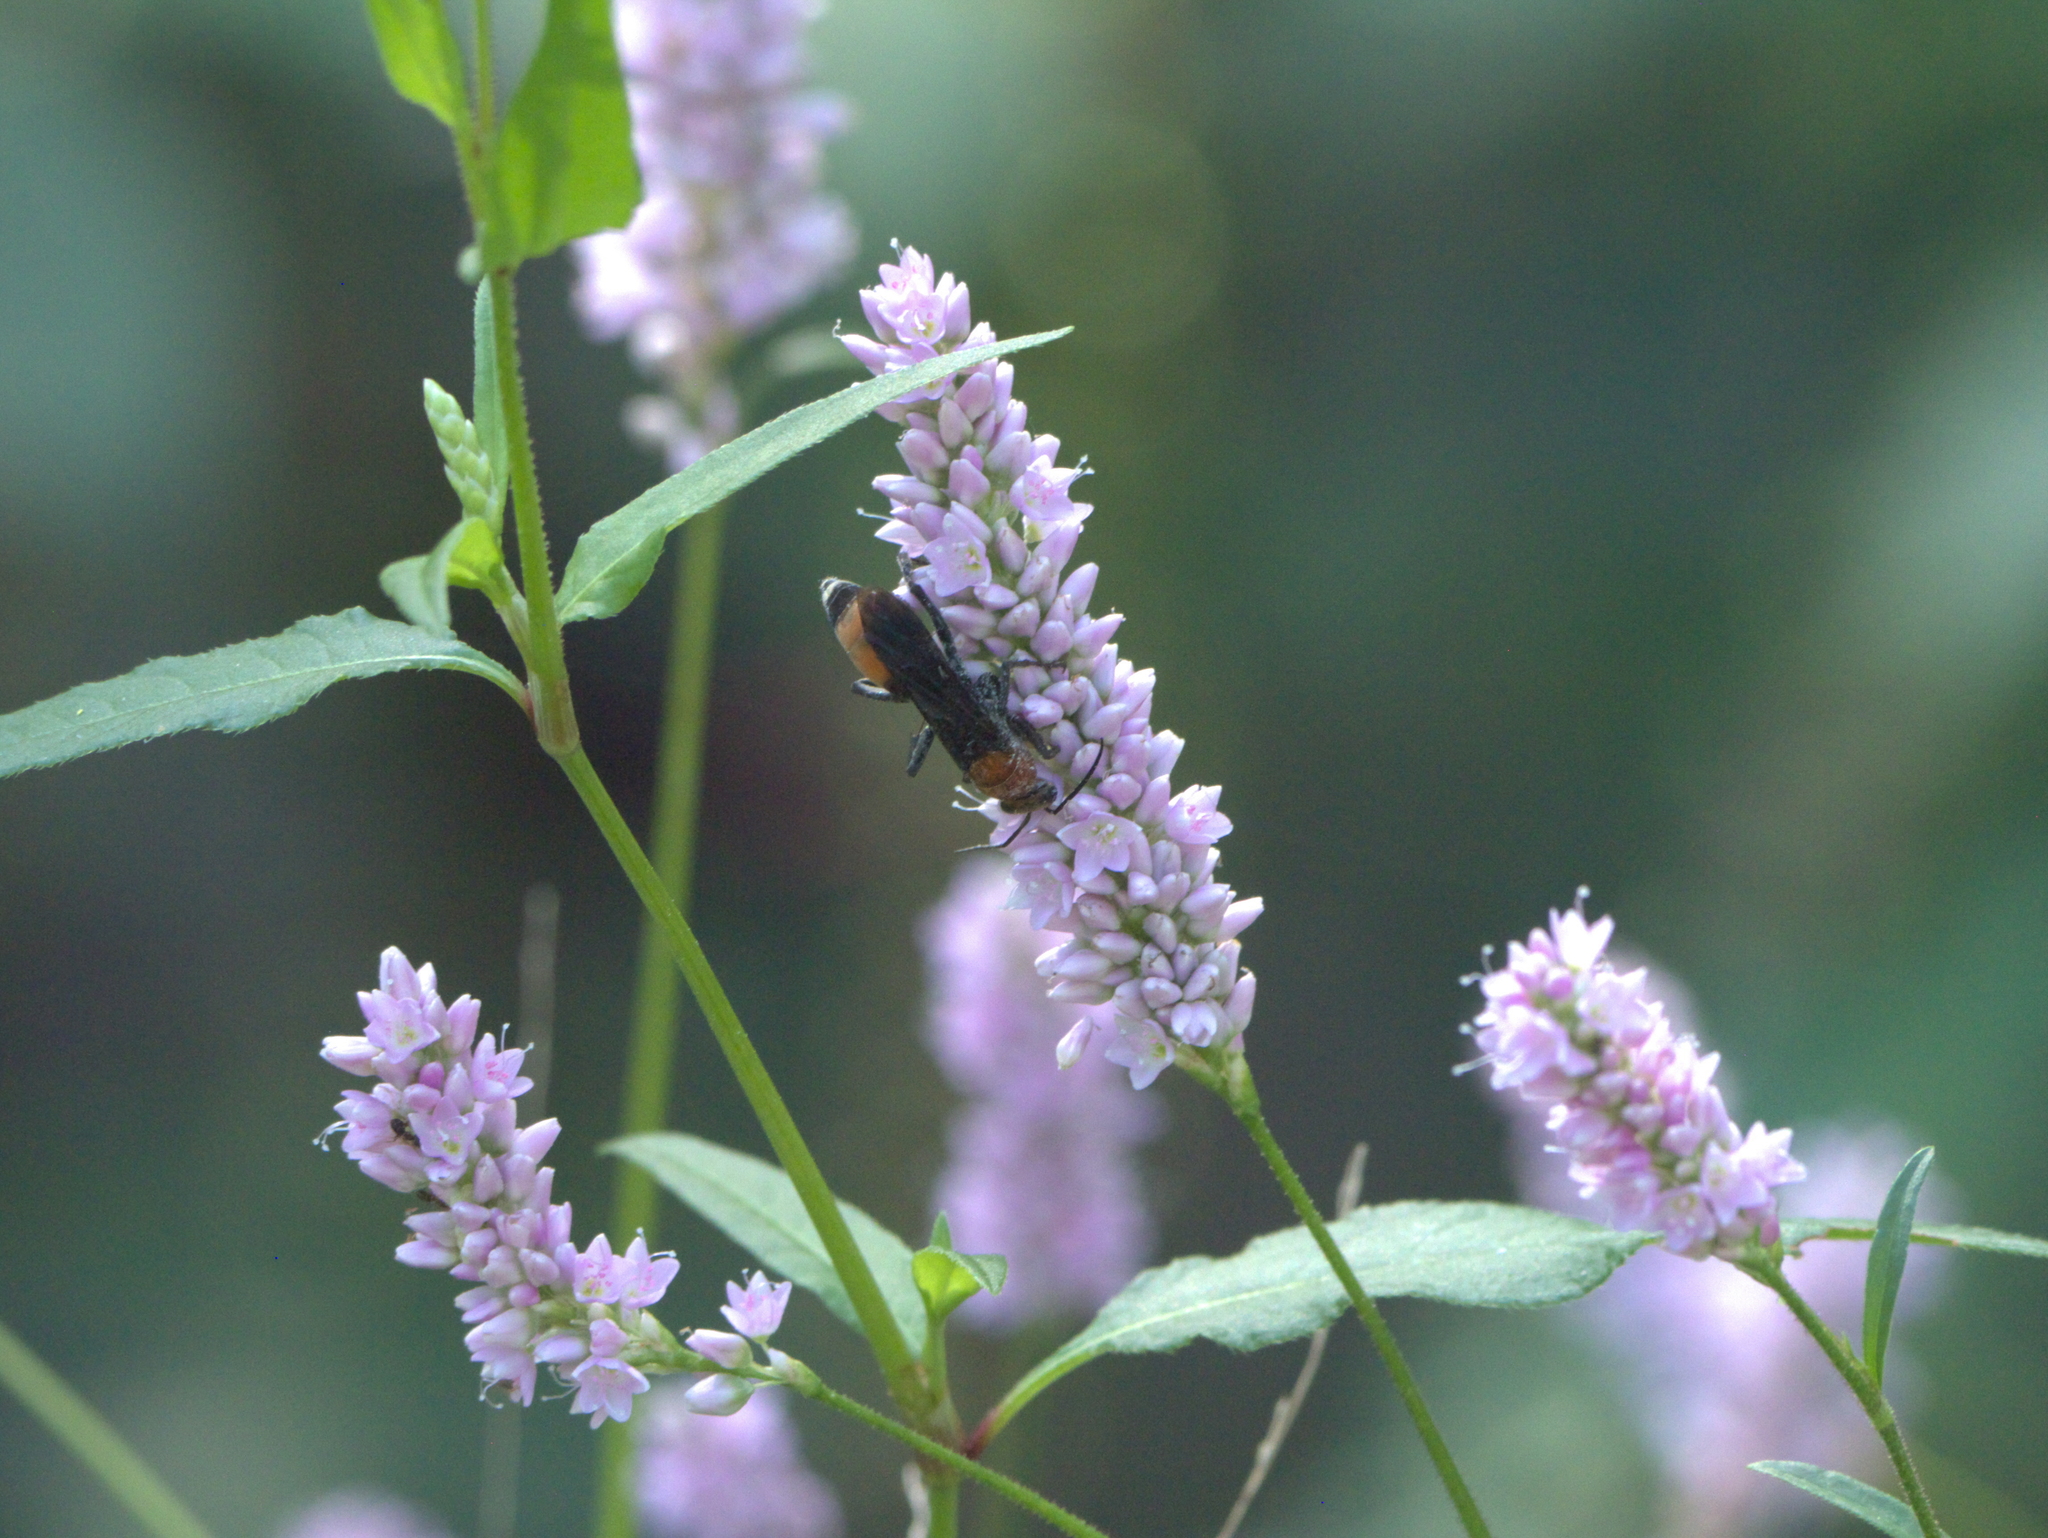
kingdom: Animalia
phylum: Arthropoda
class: Insecta
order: Hymenoptera
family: Pompilidae
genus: Psorthaspis
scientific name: Psorthaspis sanguinea
